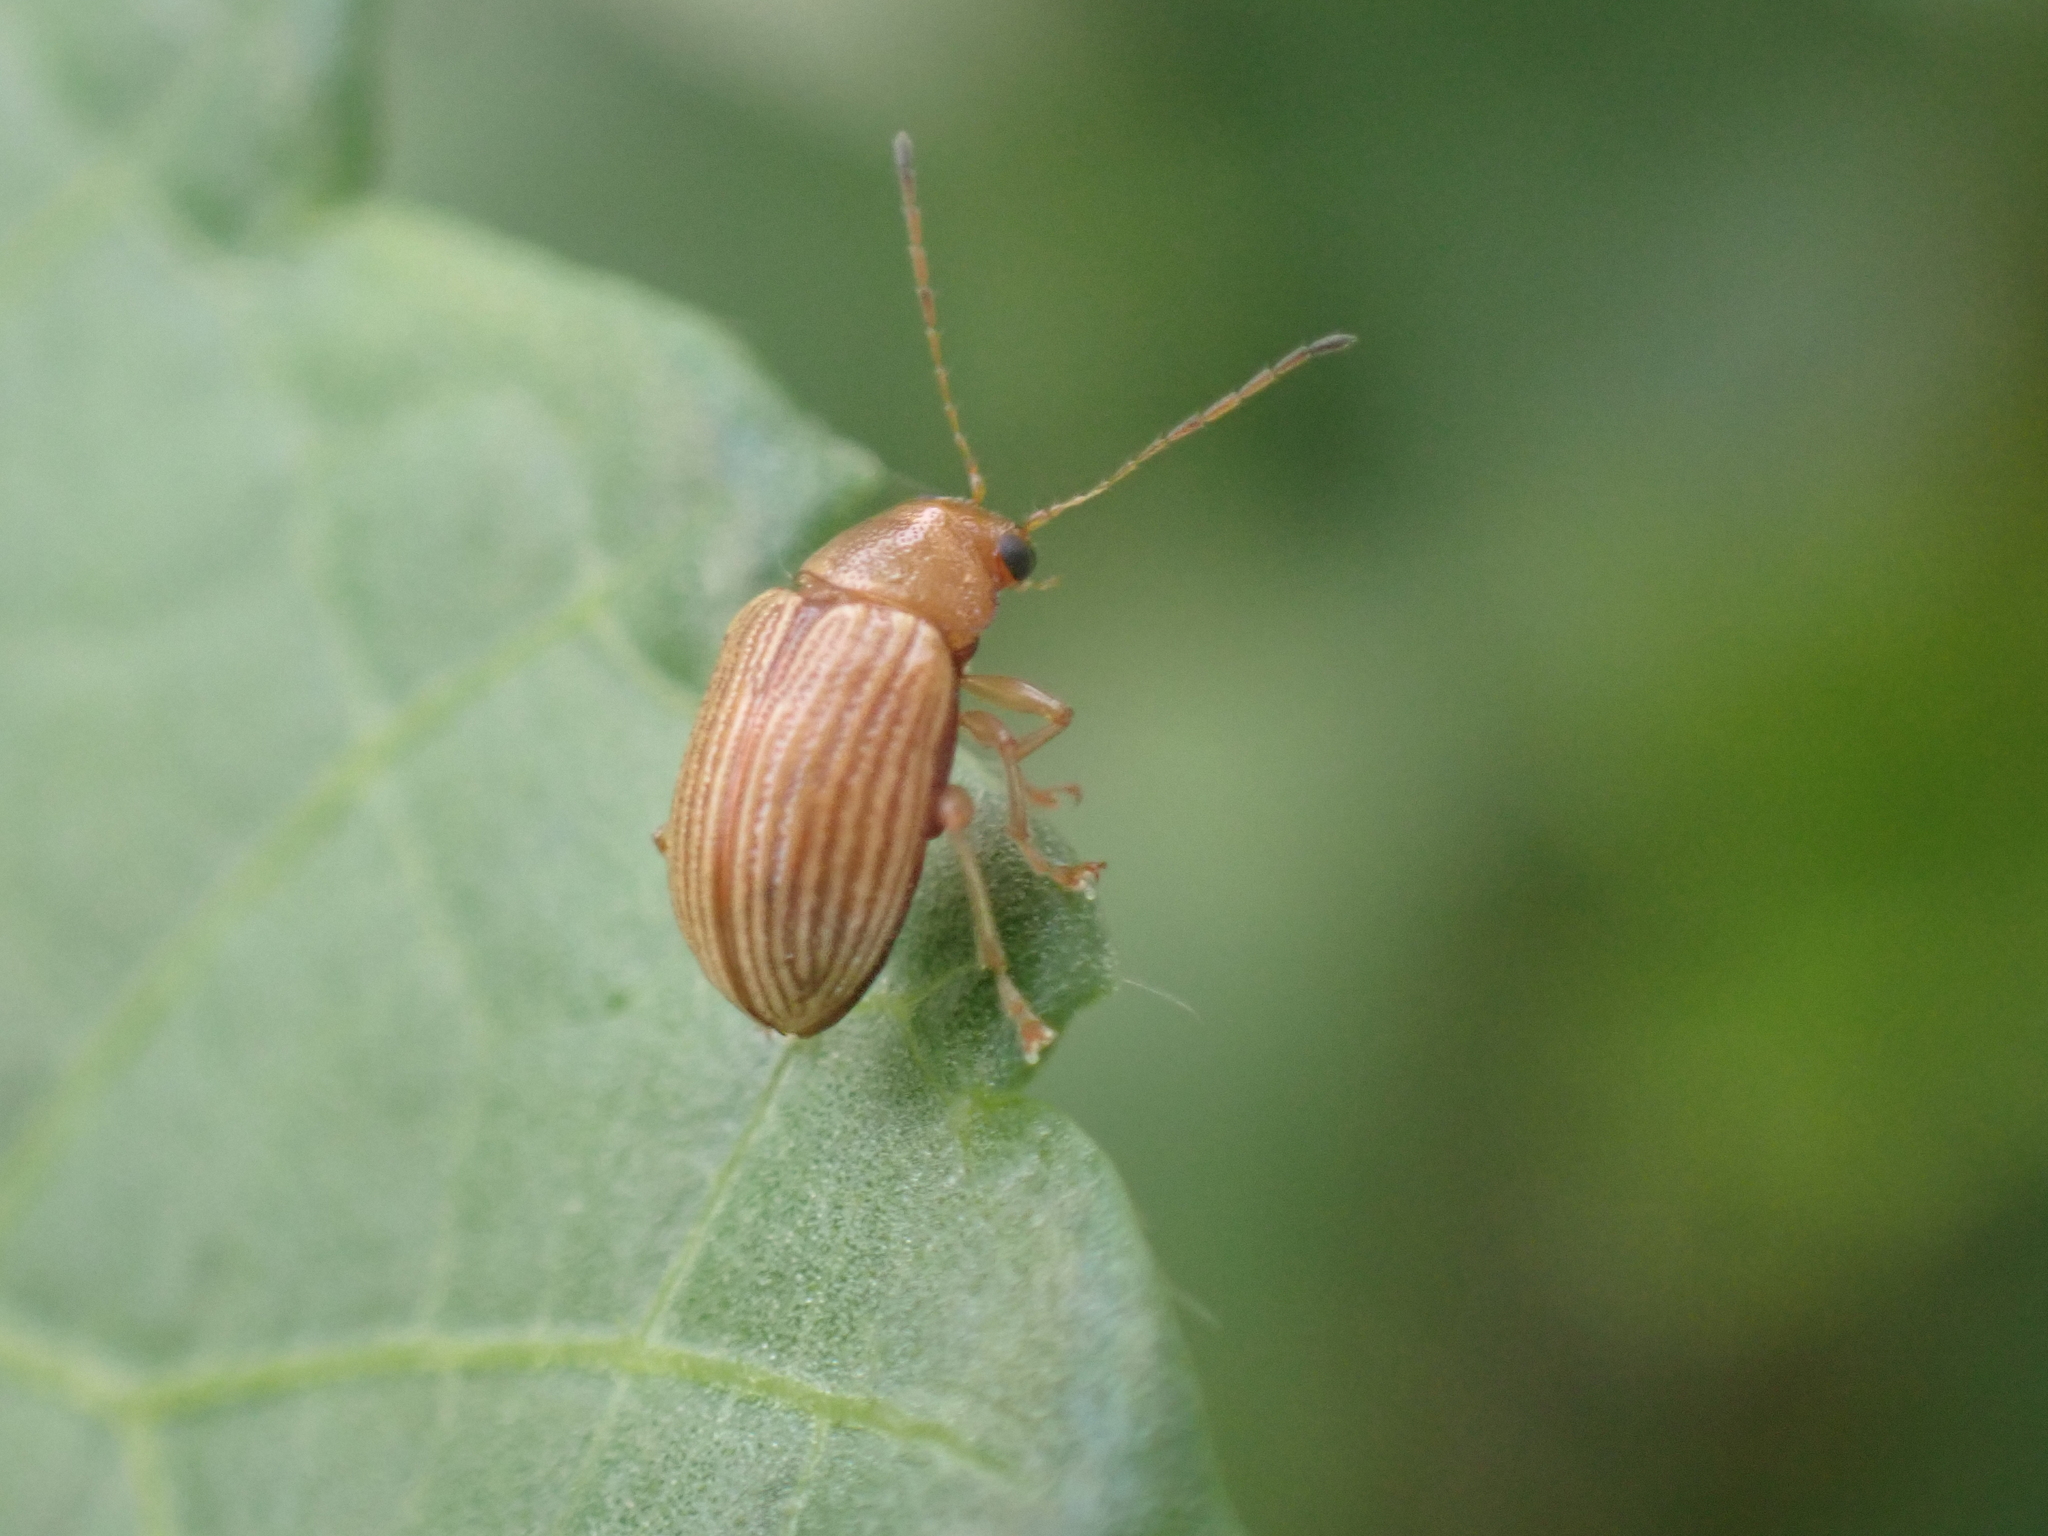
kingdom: Animalia
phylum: Arthropoda
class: Insecta
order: Coleoptera
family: Chrysomelidae
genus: Colaspis
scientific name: Colaspis brunnea
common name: Grape colaspis
